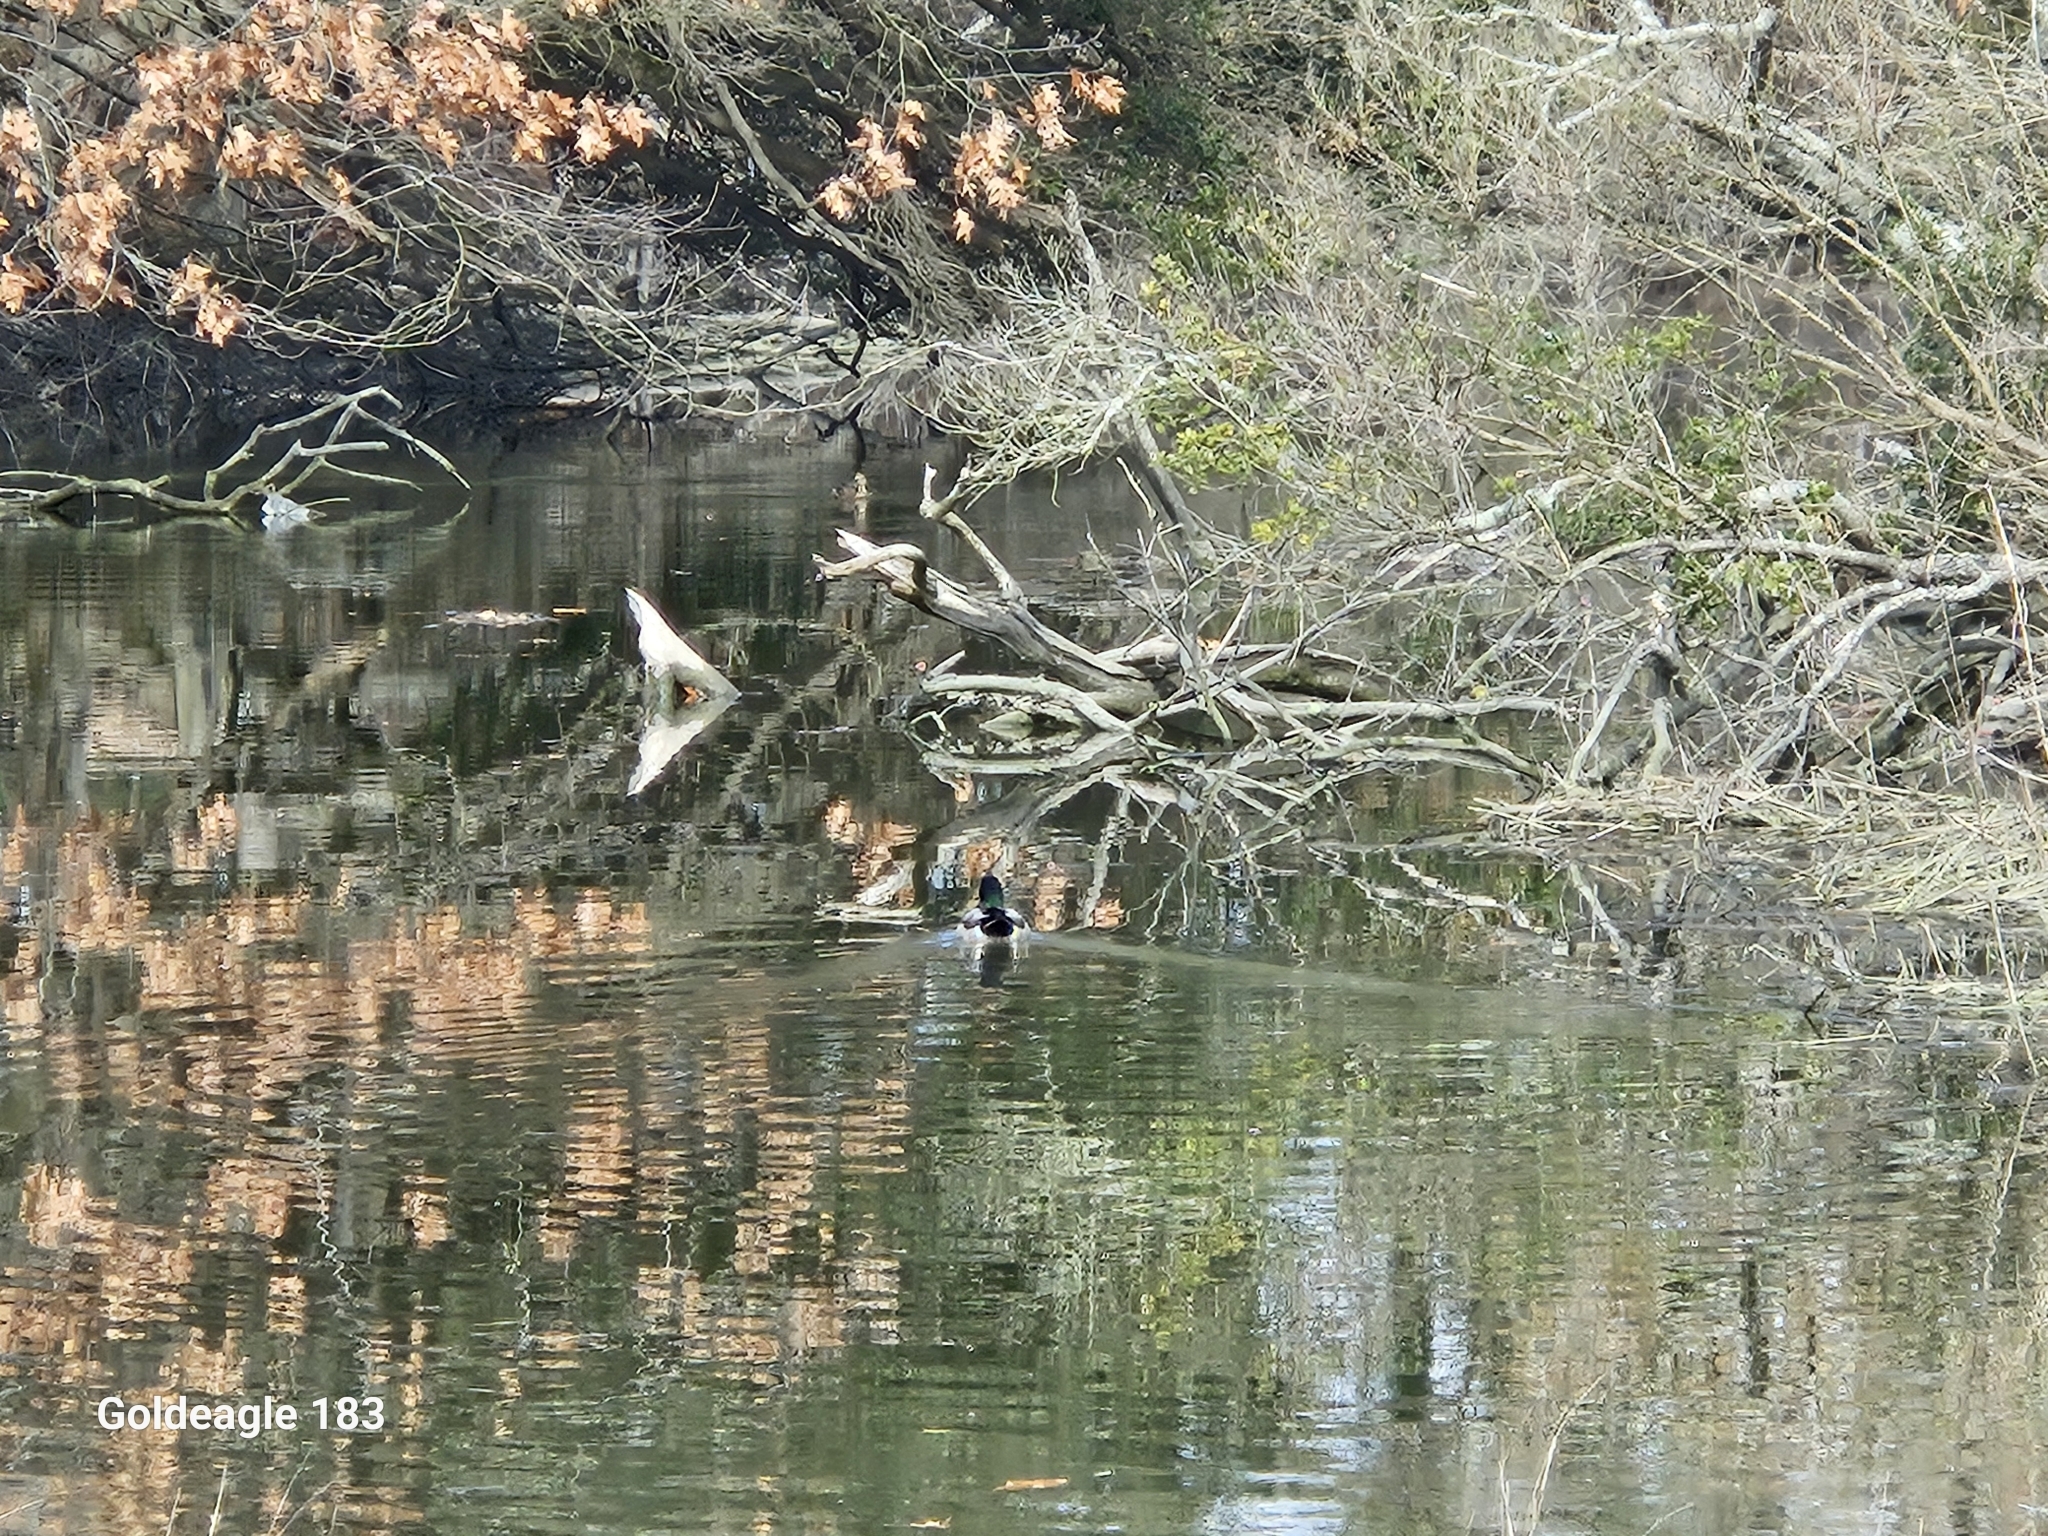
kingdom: Animalia
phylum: Chordata
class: Aves
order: Anseriformes
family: Anatidae
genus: Anas
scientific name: Anas platyrhynchos
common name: Mallard
